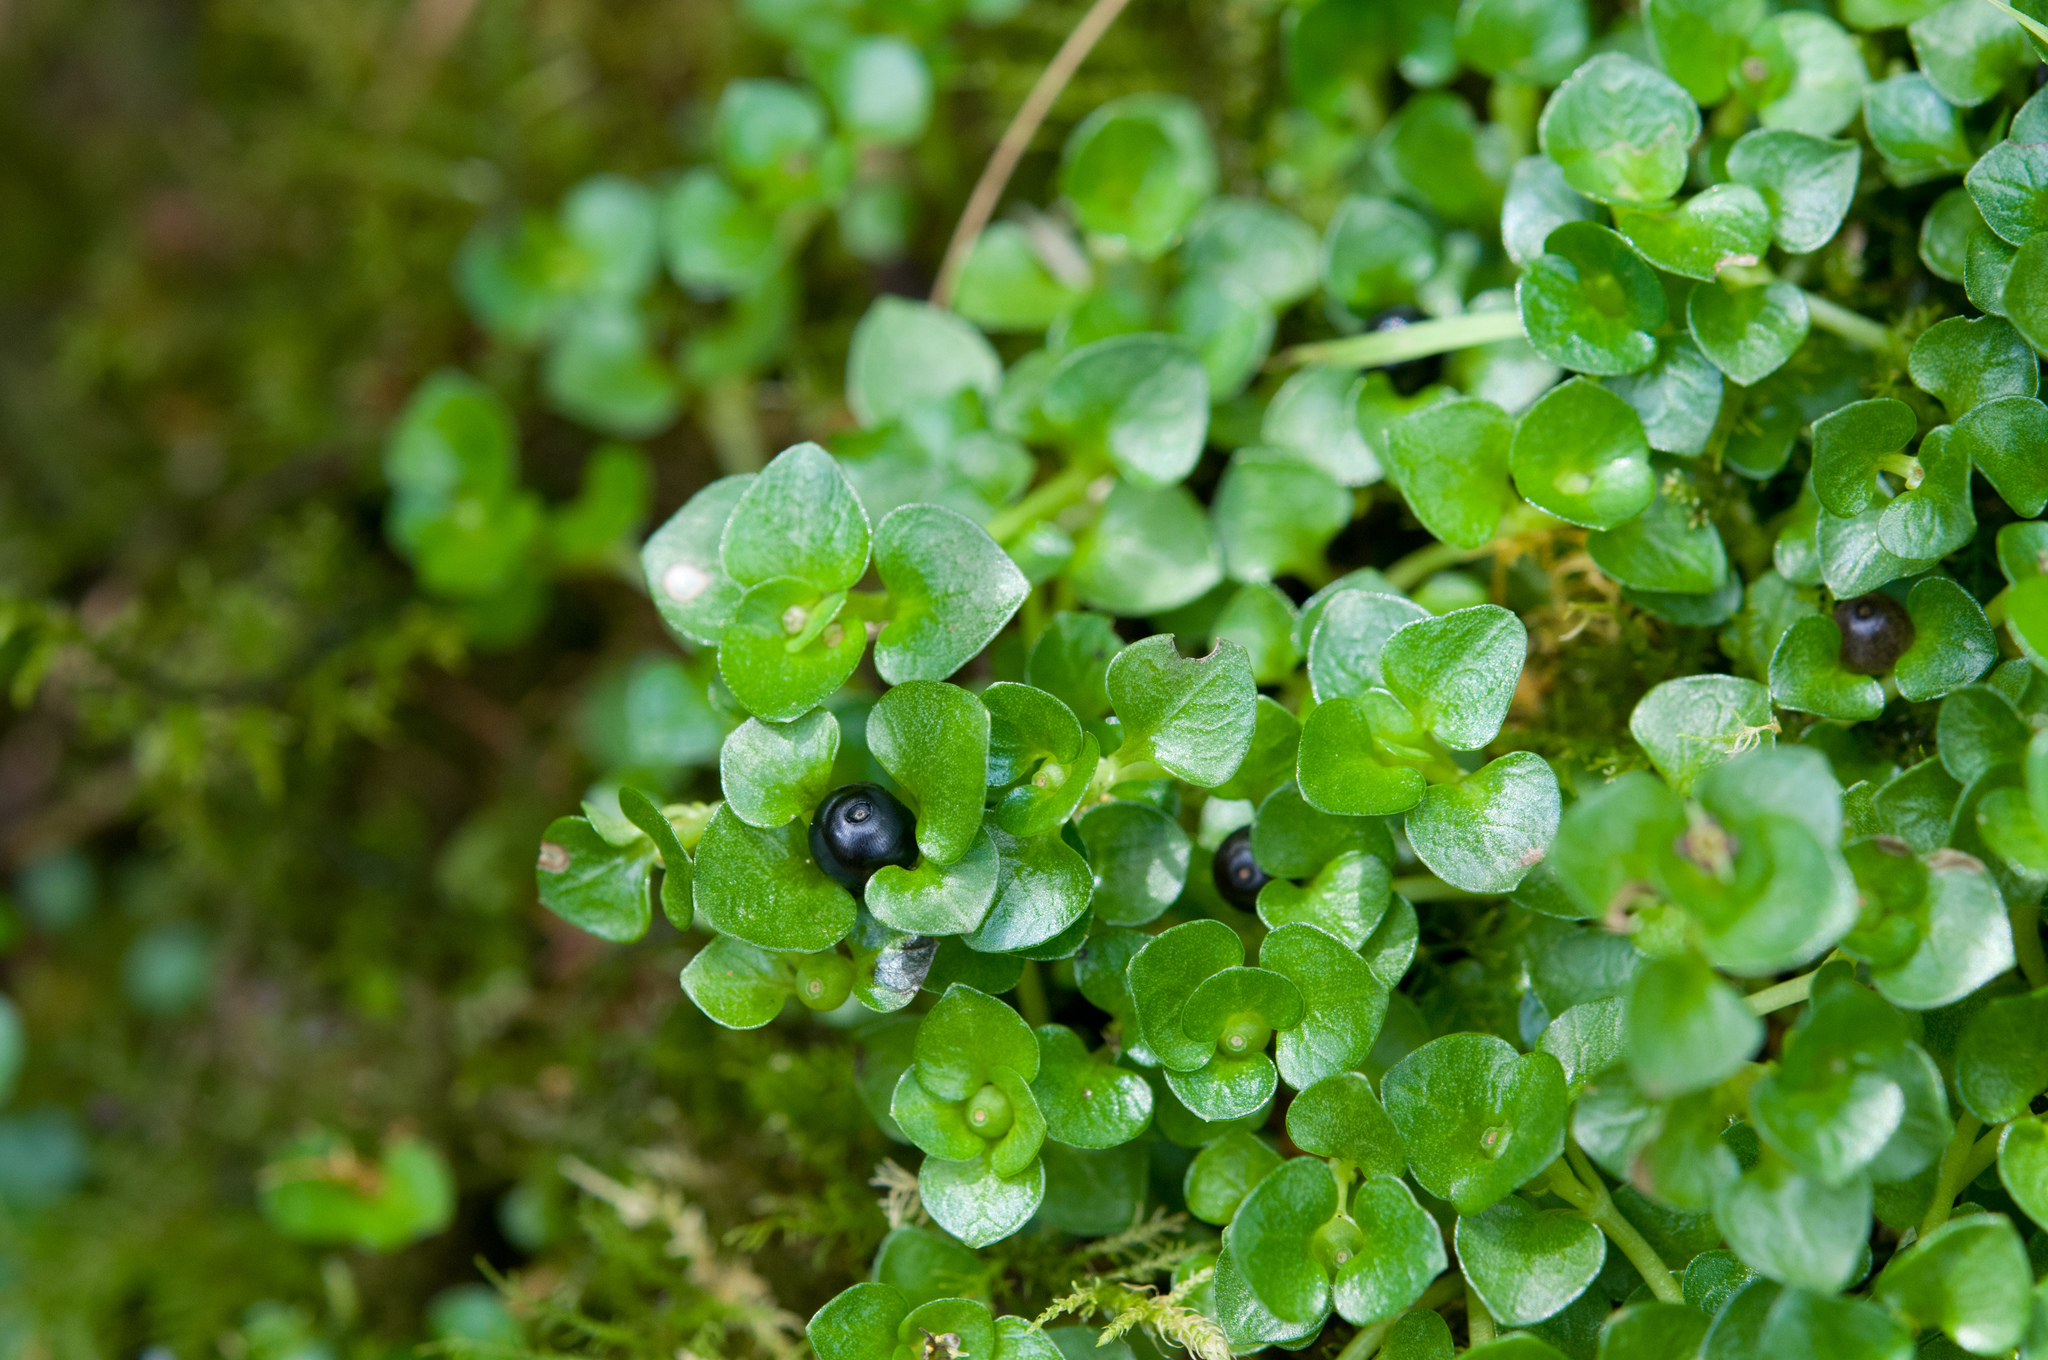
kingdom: Plantae
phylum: Tracheophyta
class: Magnoliopsida
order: Gentianales
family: Rubiaceae
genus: Nertera
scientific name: Nertera nigricarpa
